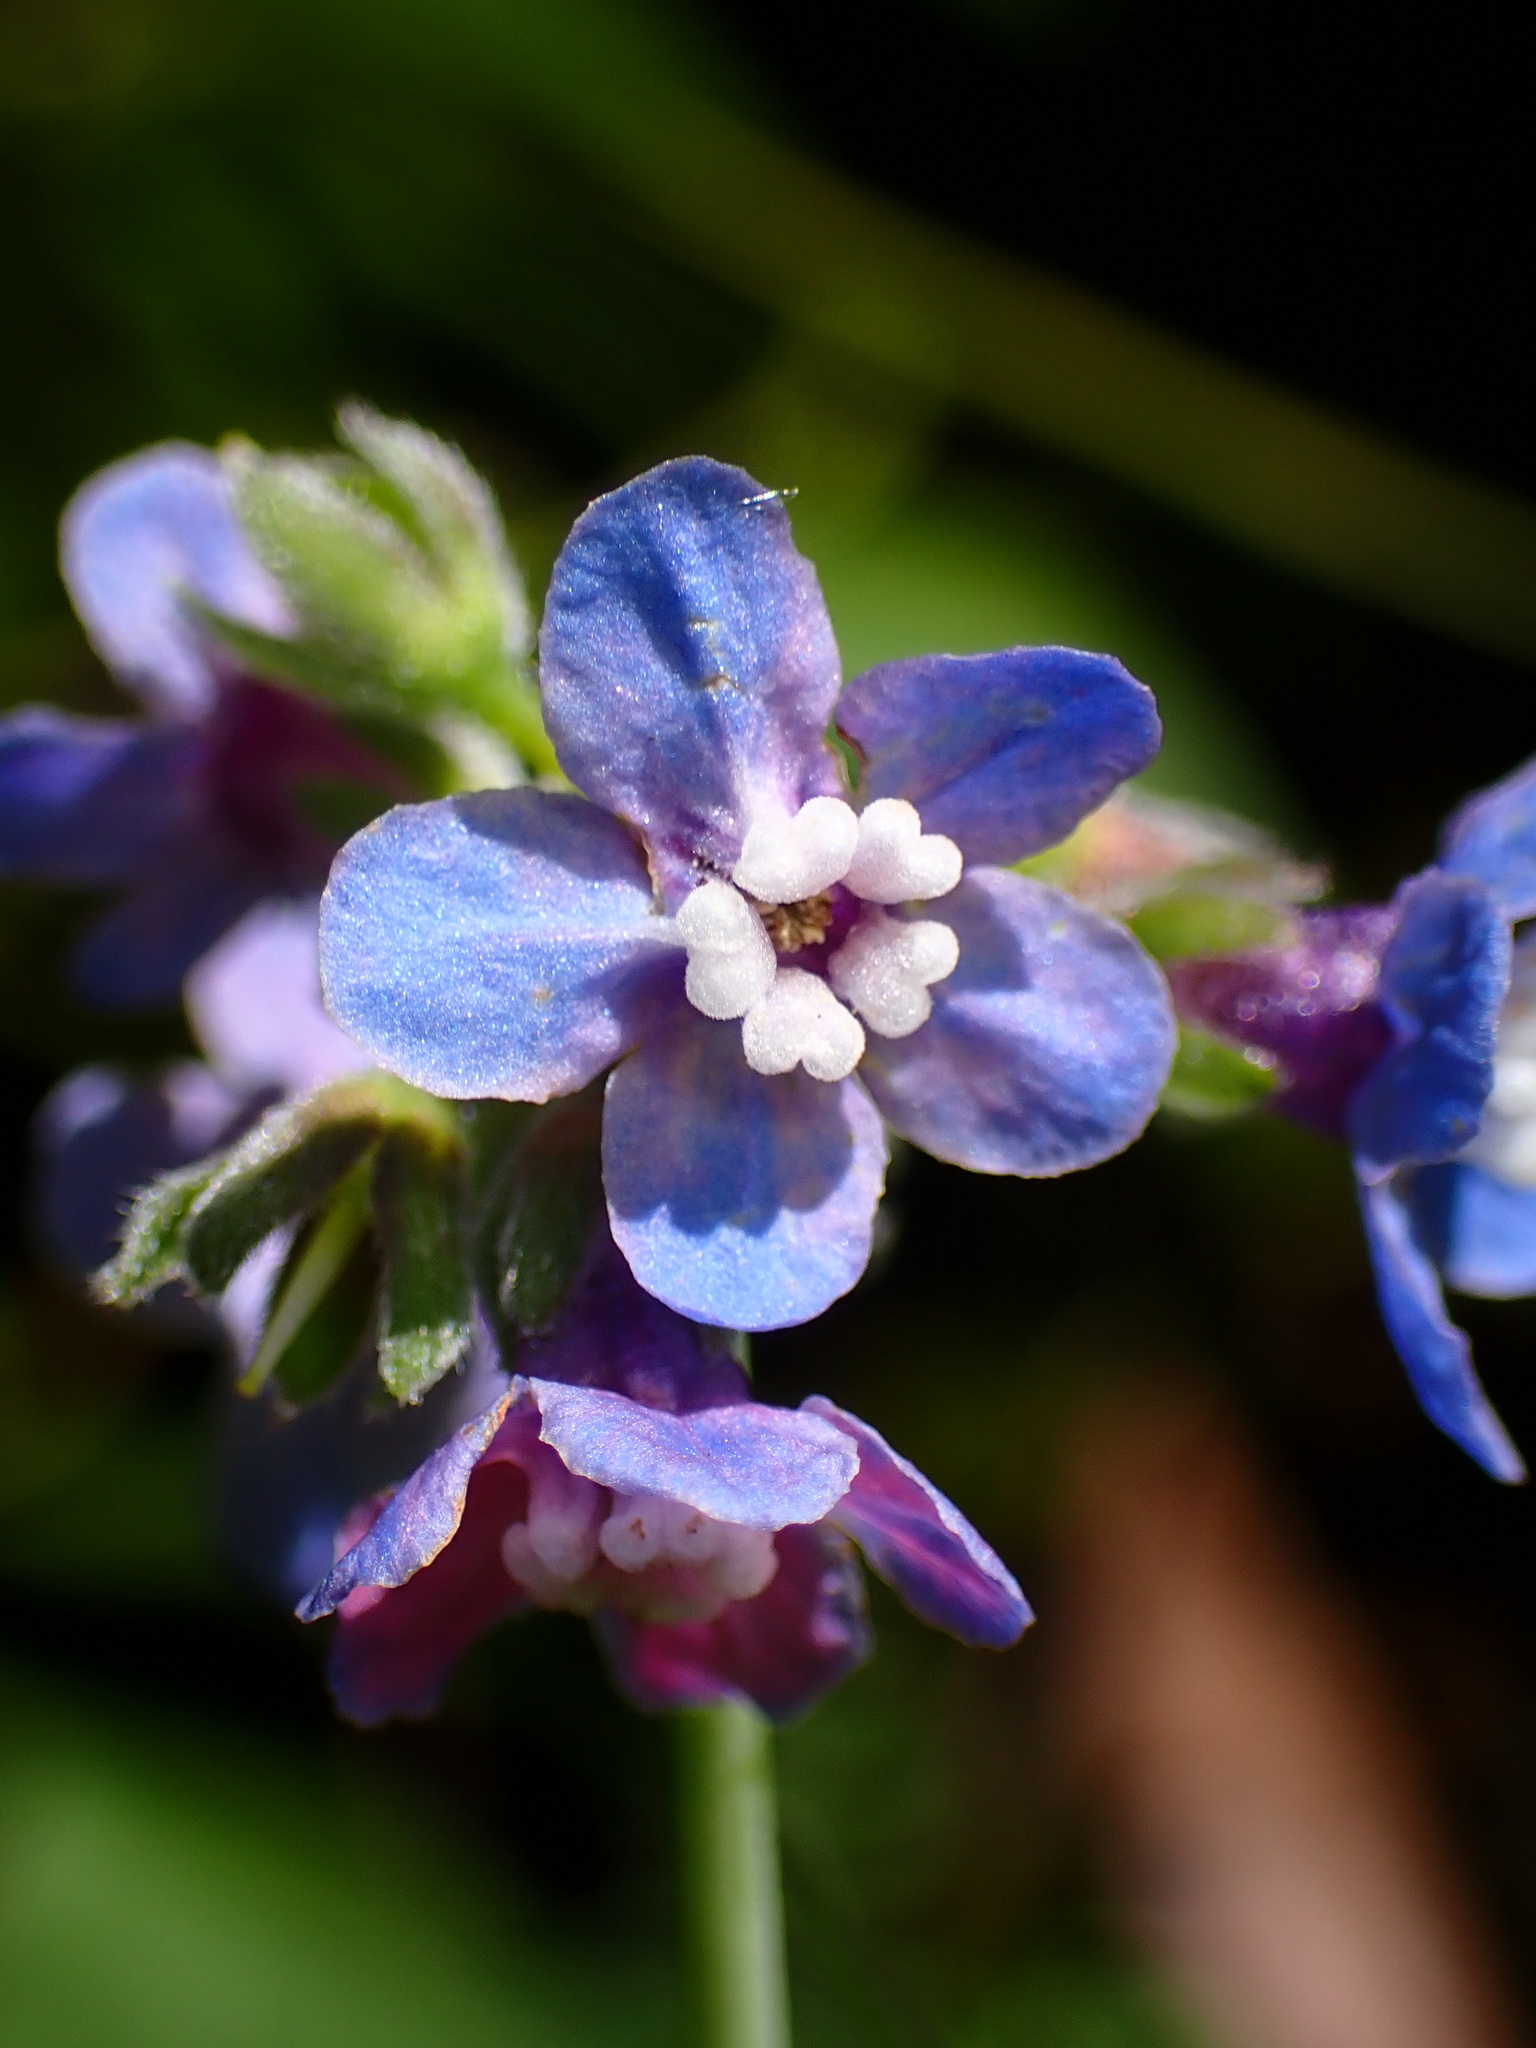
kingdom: Plantae
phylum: Tracheophyta
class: Magnoliopsida
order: Boraginales
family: Boraginaceae
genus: Adelinia
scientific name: Adelinia grande
